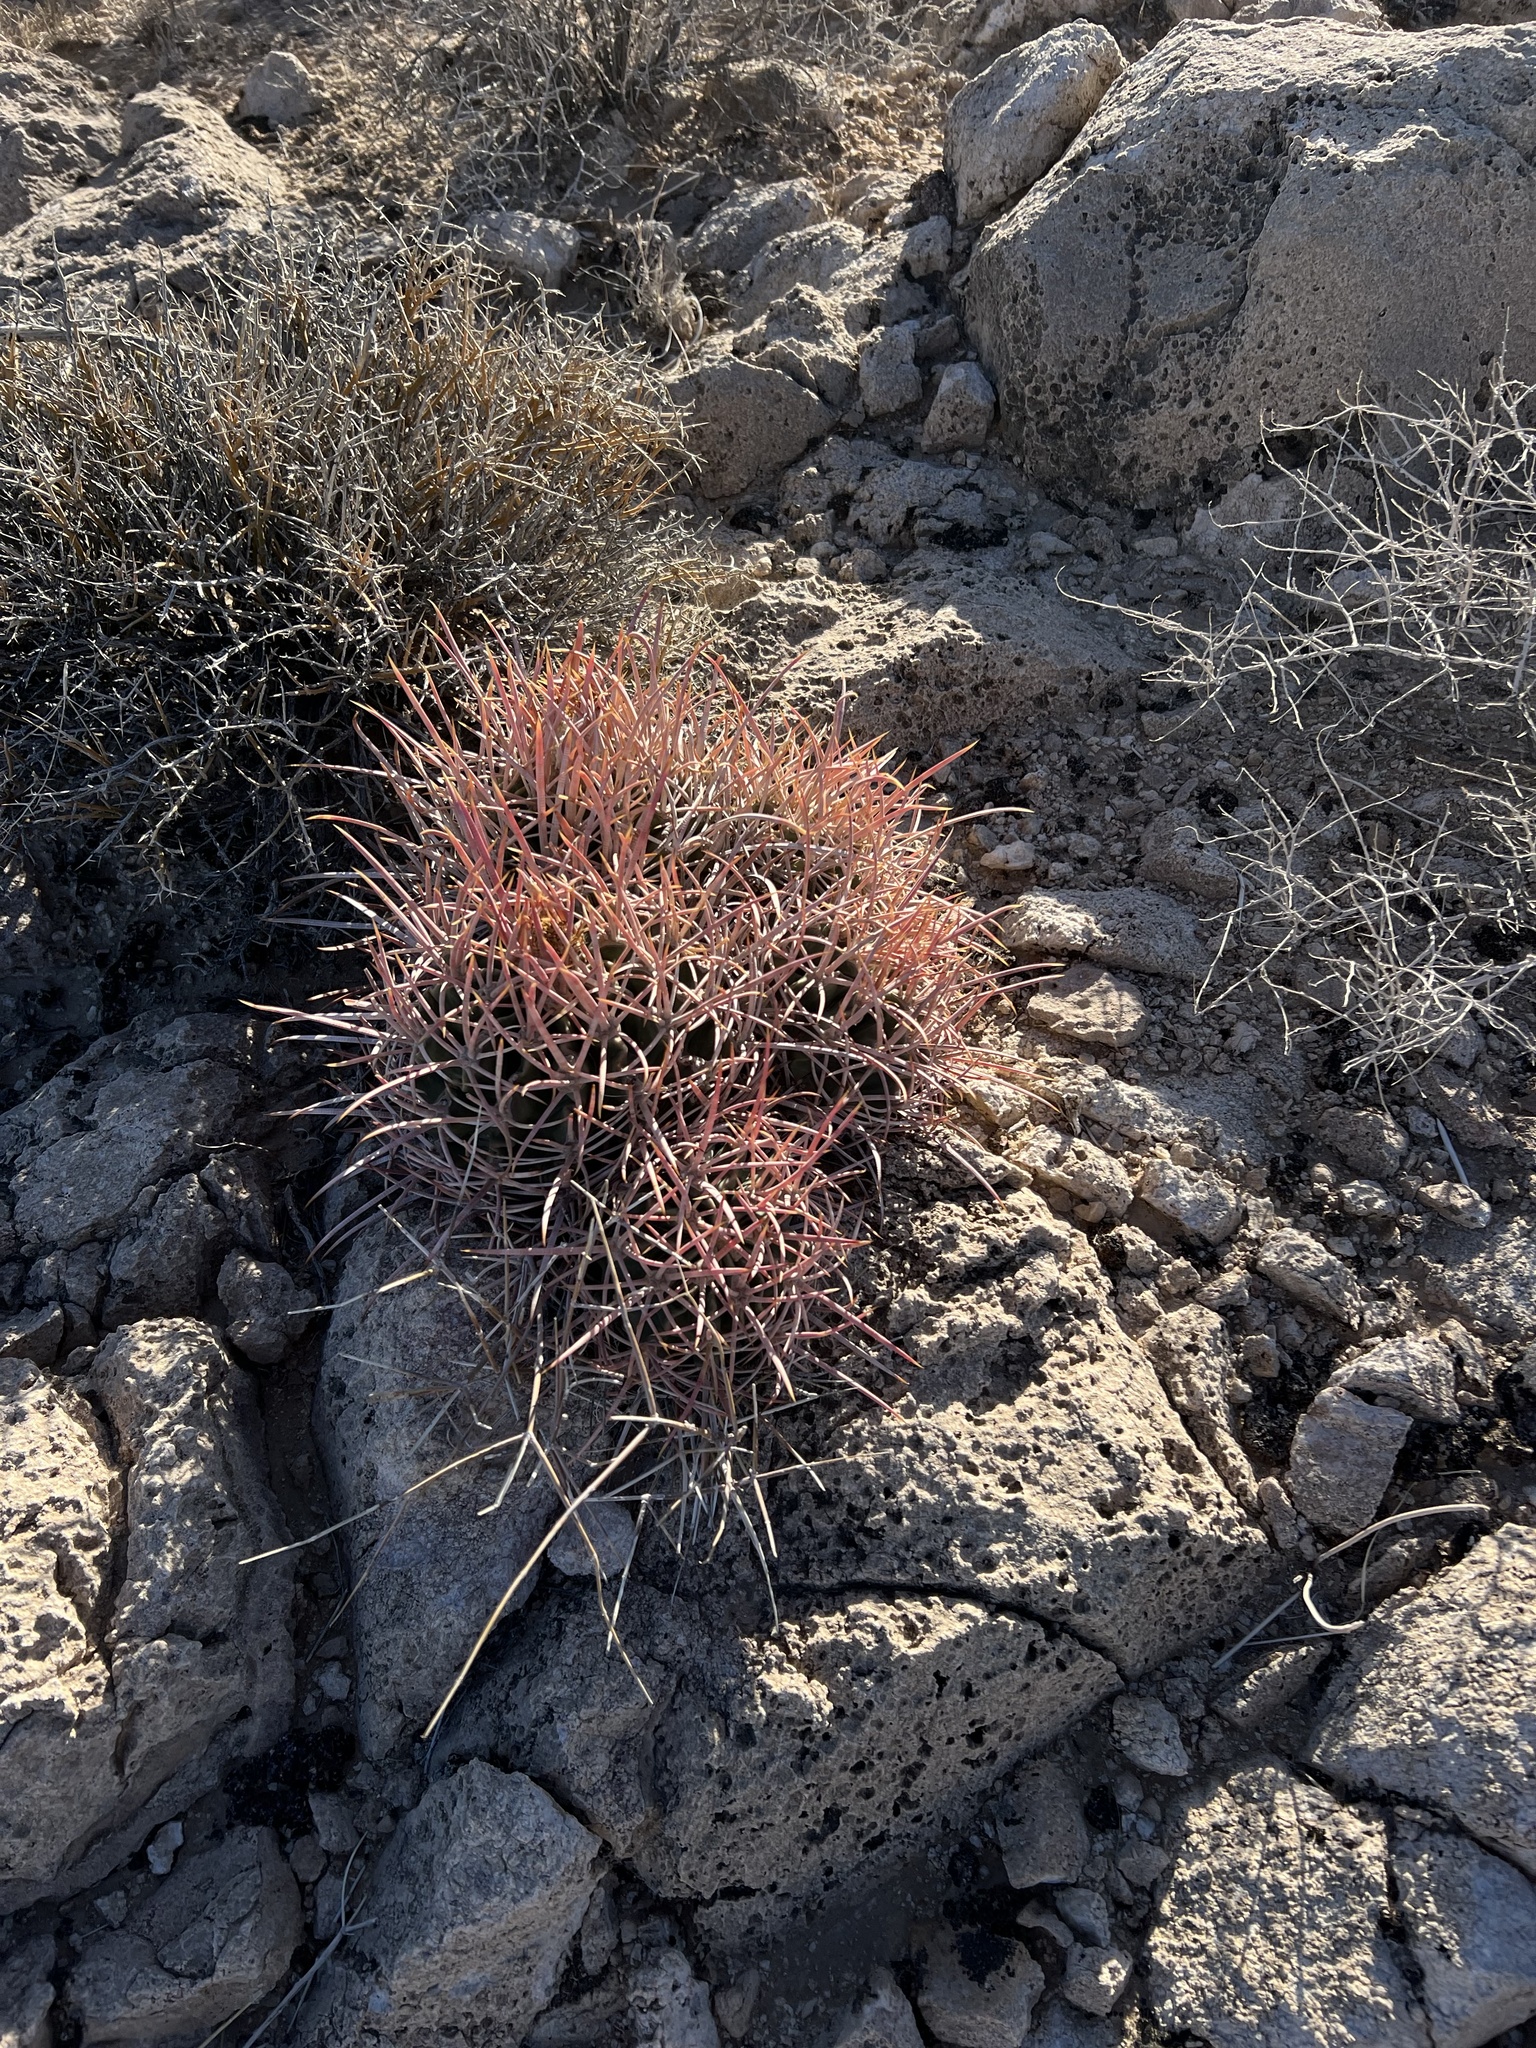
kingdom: Plantae
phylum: Tracheophyta
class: Magnoliopsida
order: Caryophyllales
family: Cactaceae
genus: Echinocactus
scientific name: Echinocactus polycephalus
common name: Cottontop cactus
